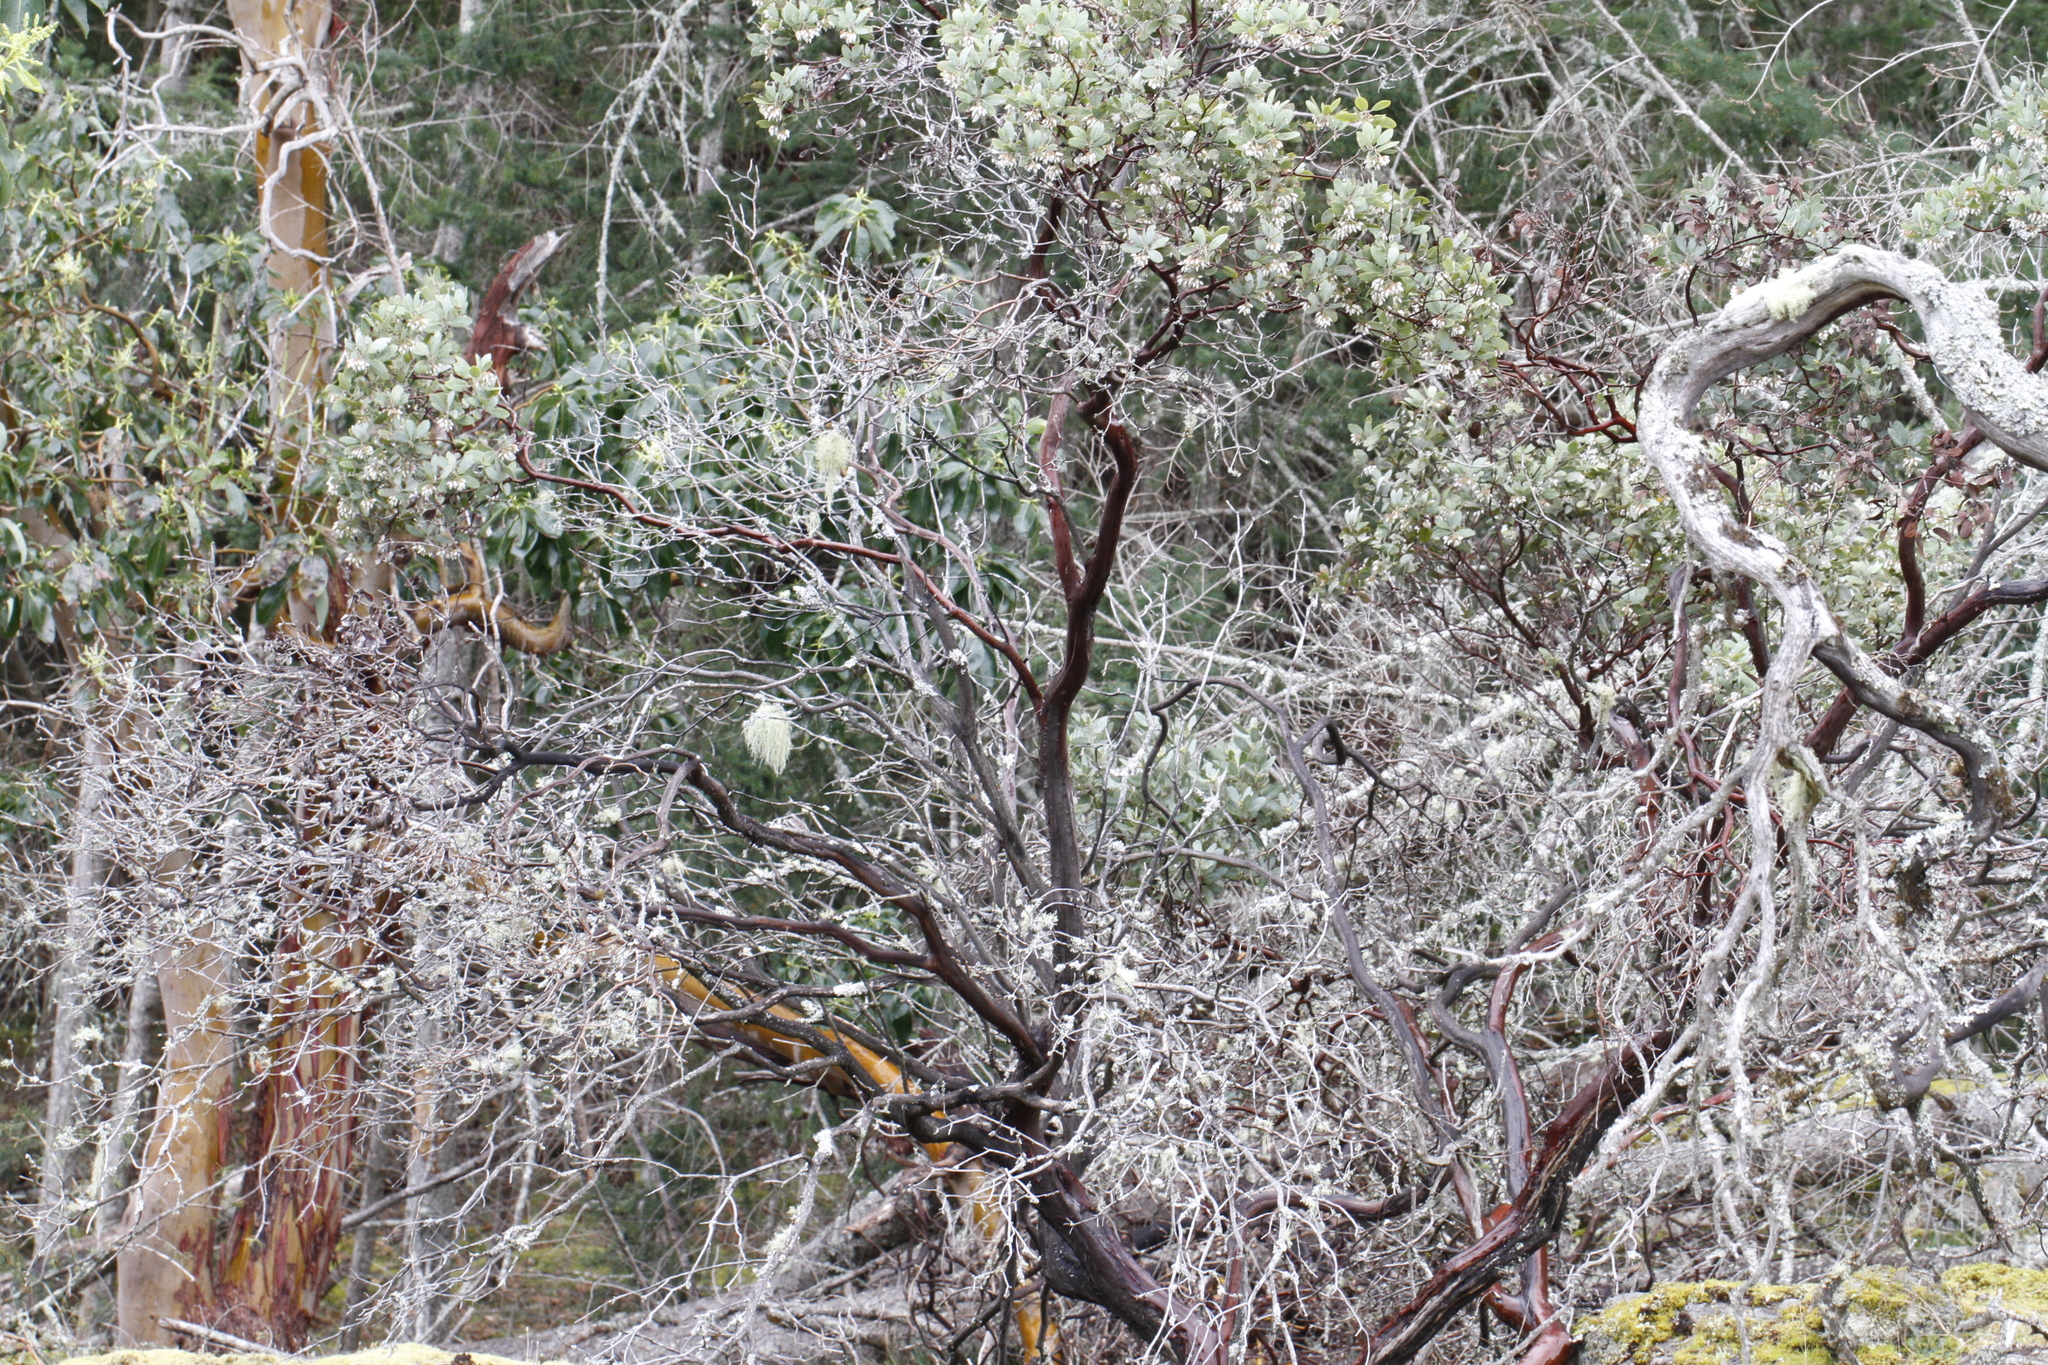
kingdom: Plantae
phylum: Tracheophyta
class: Magnoliopsida
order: Ericales
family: Ericaceae
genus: Arctostaphylos
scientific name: Arctostaphylos columbiana
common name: Bristly bearberry
